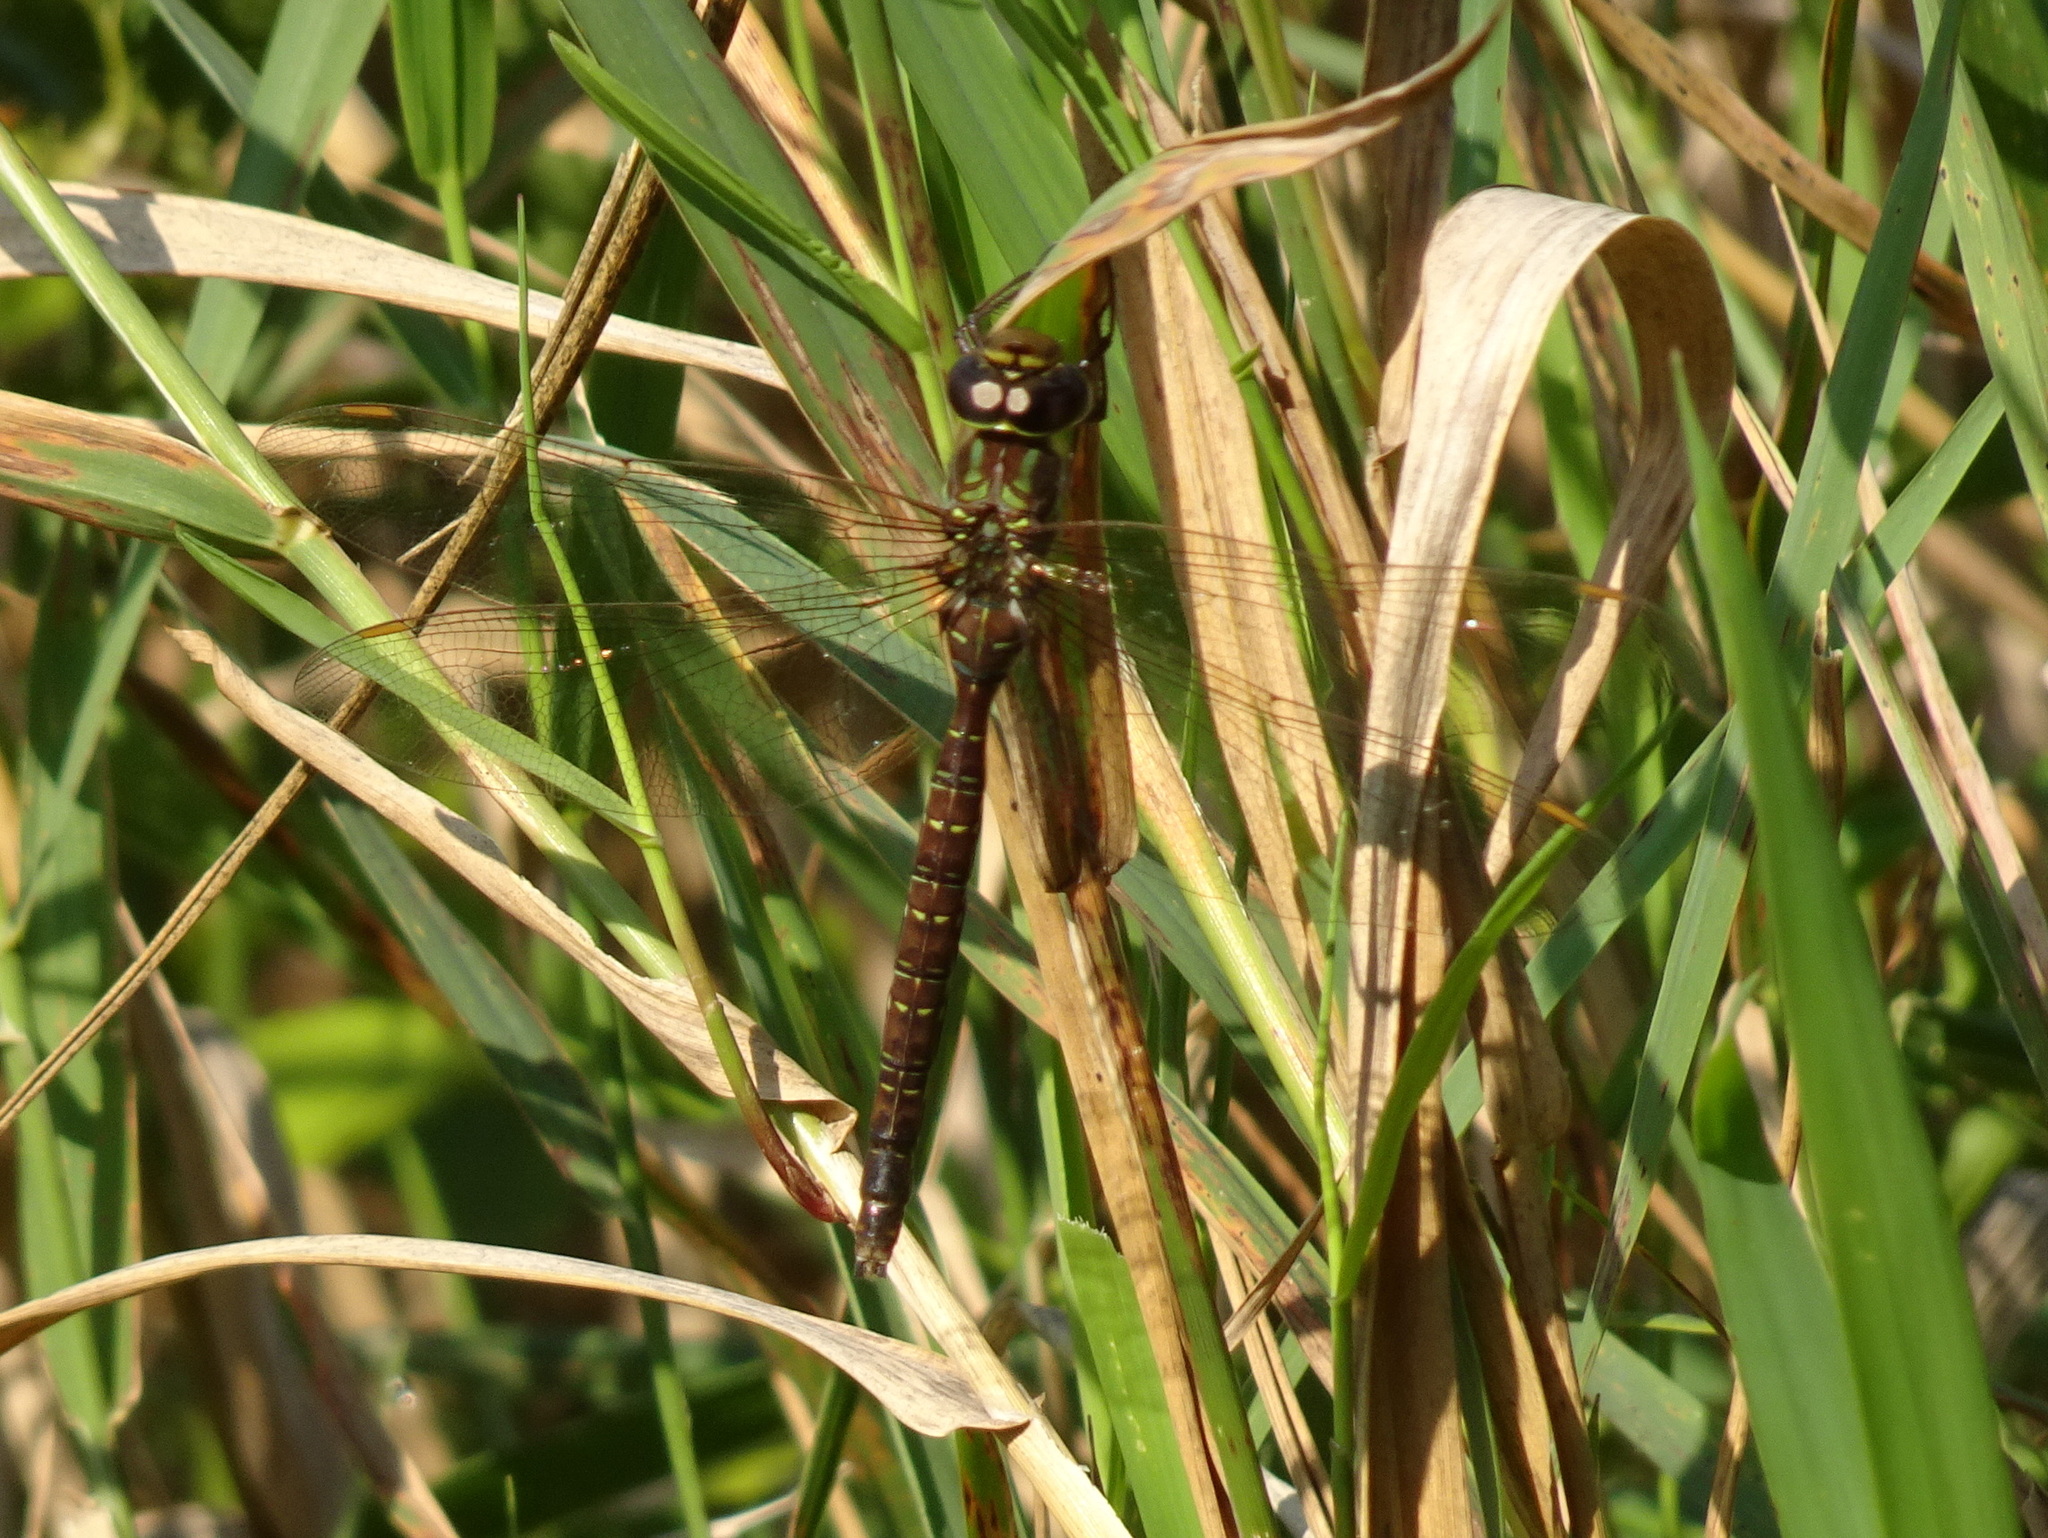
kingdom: Animalia
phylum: Arthropoda
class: Insecta
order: Odonata
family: Aeshnidae
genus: Aeshna
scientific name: Aeshna umbrosa
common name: Shadow darner
